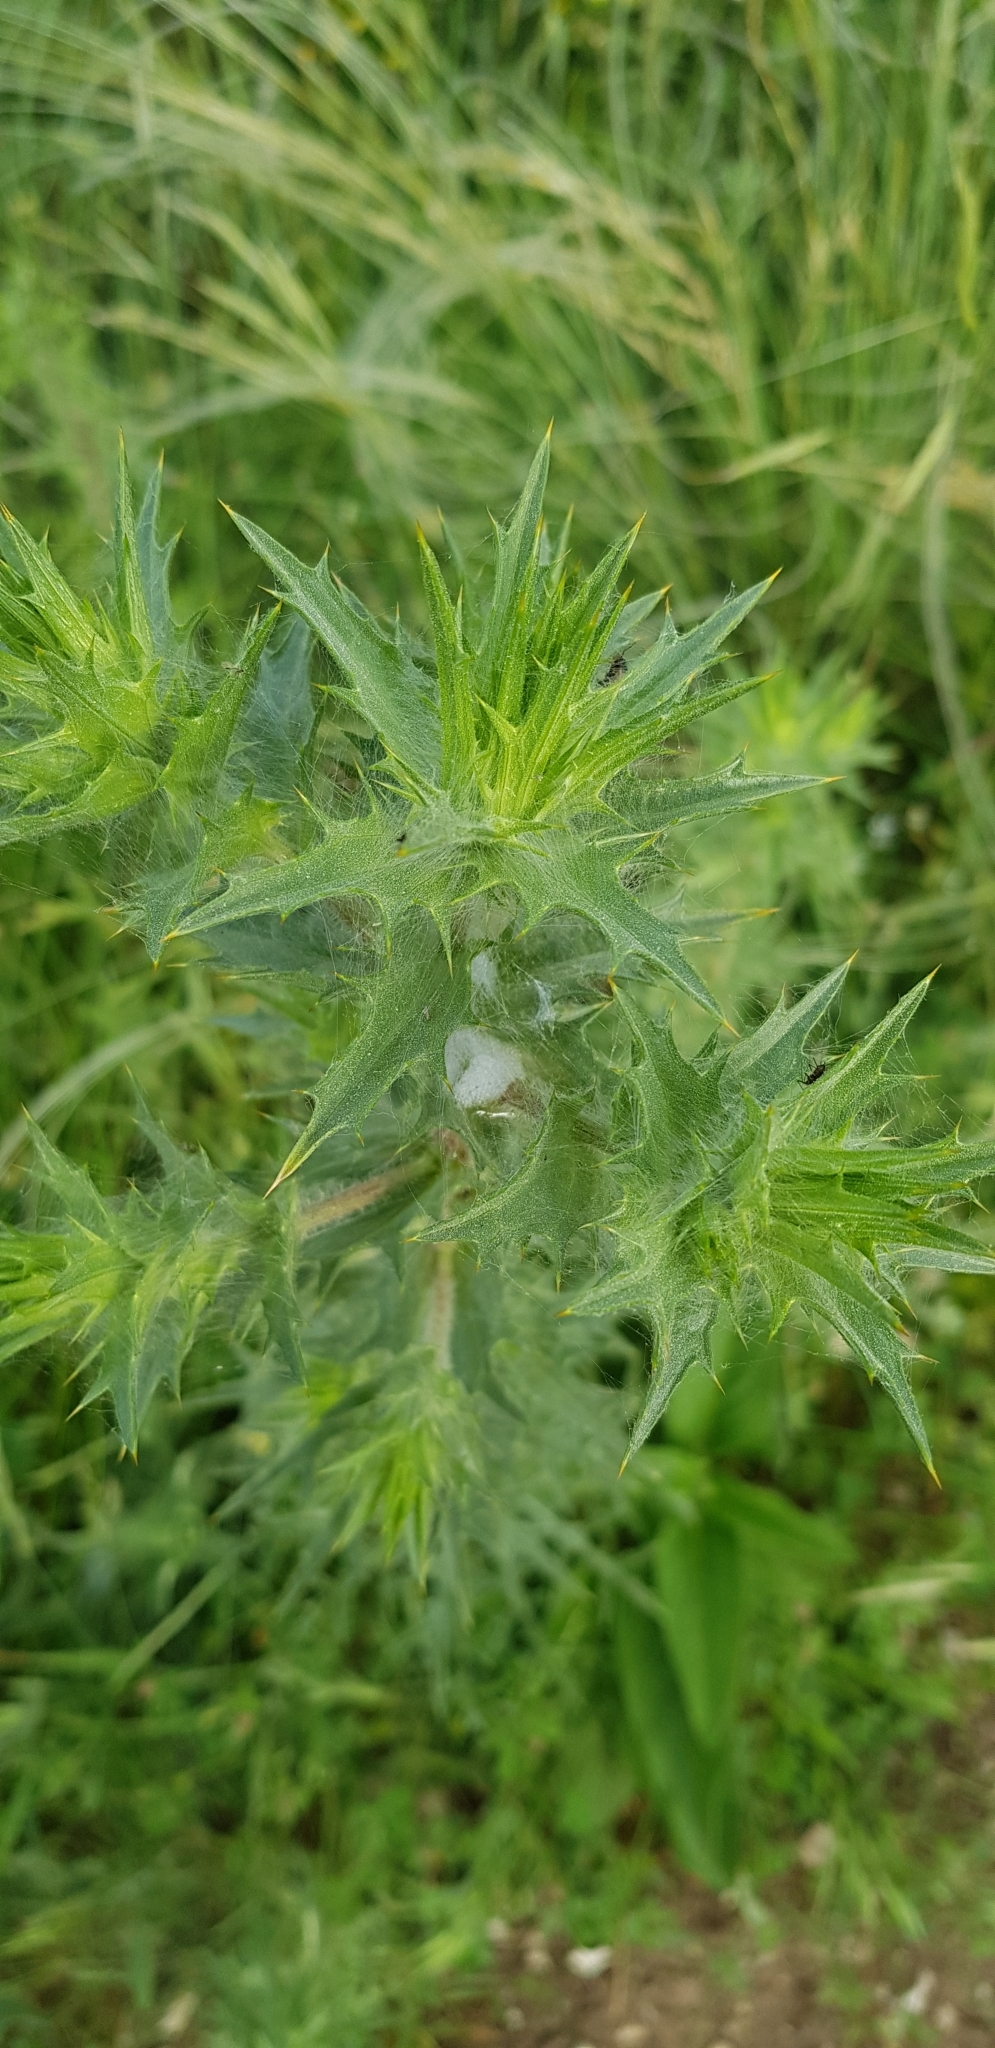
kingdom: Plantae
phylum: Tracheophyta
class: Magnoliopsida
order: Asterales
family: Asteraceae
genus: Carthamus
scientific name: Carthamus lanatus
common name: Downy safflower
